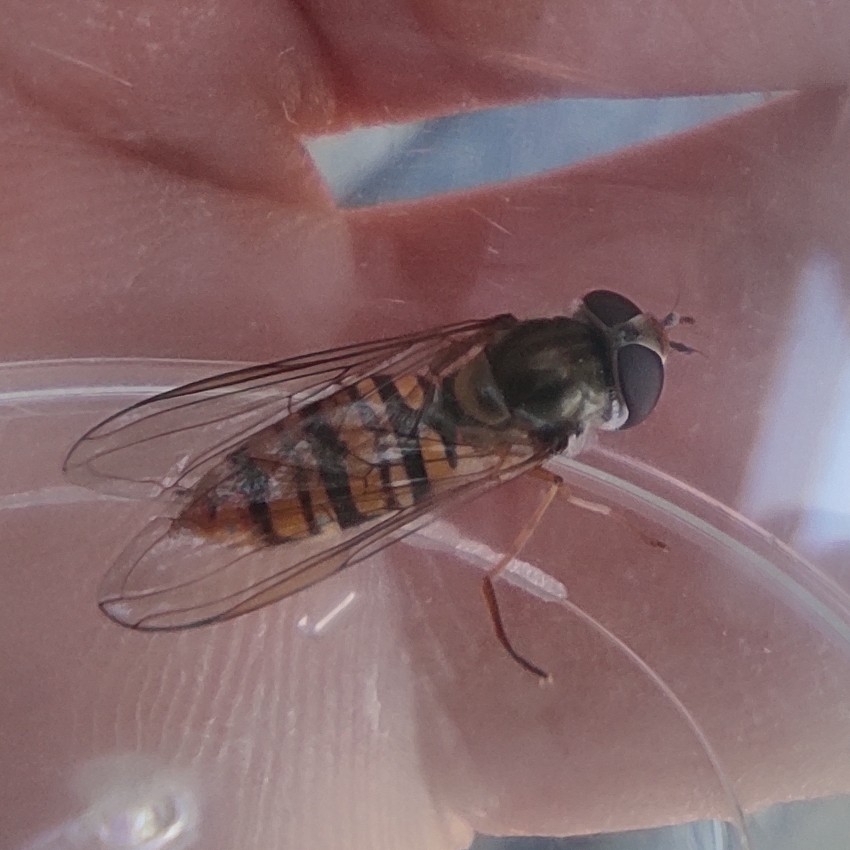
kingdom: Animalia
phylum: Arthropoda
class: Insecta
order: Diptera
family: Syrphidae
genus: Episyrphus
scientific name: Episyrphus balteatus
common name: Marmalade hoverfly
